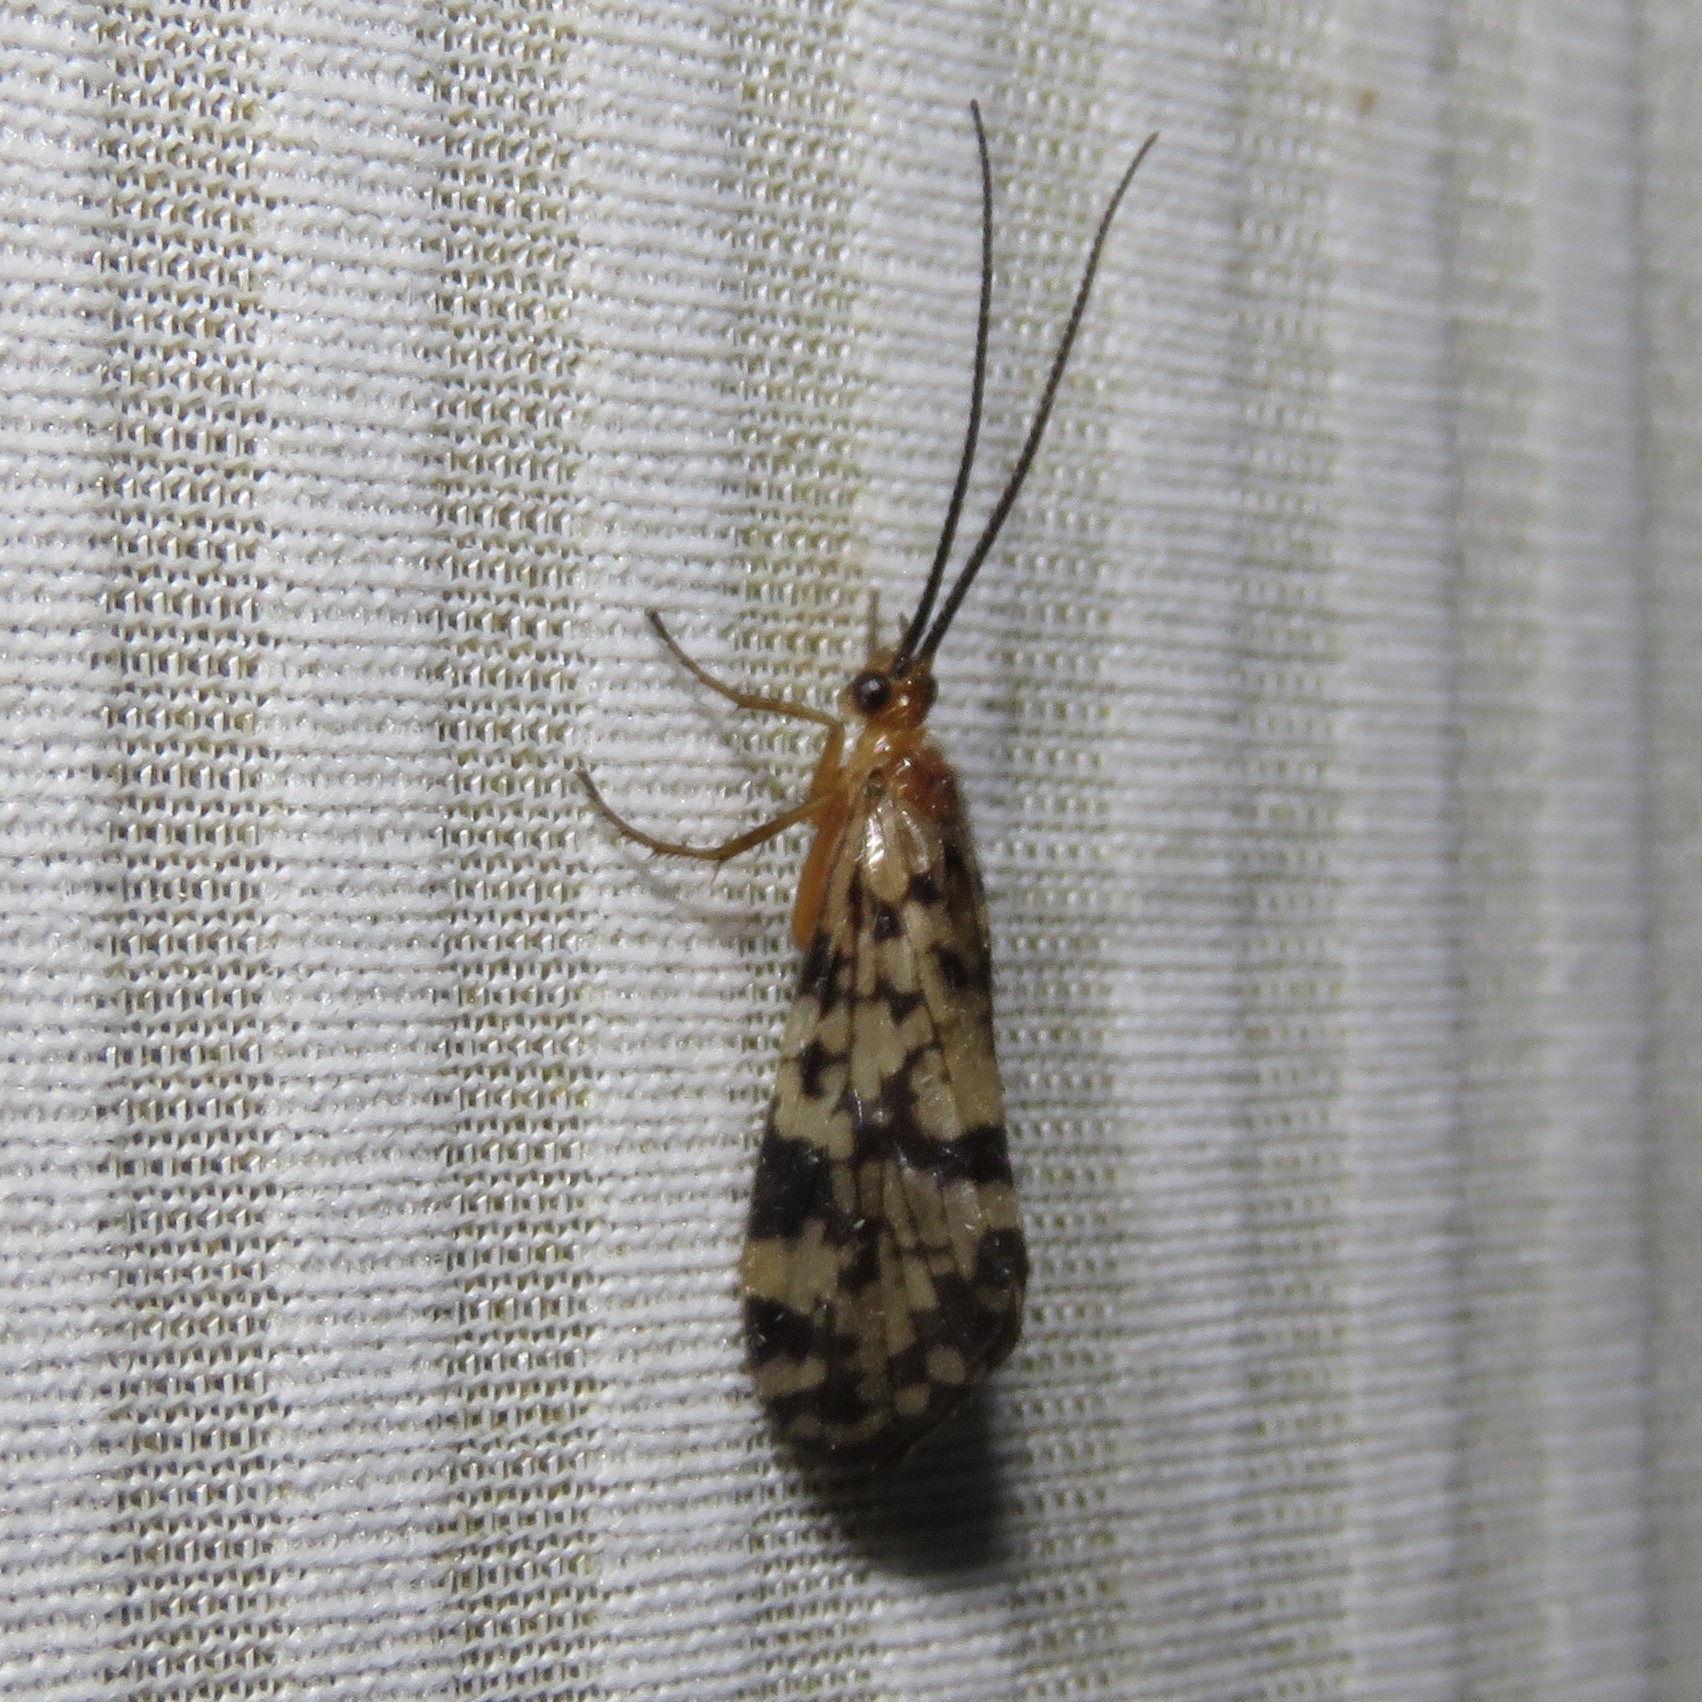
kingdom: Animalia
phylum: Arthropoda
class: Insecta
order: Trichoptera
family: Phryganeidae
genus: Banksiola
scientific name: Banksiola dossuaria
